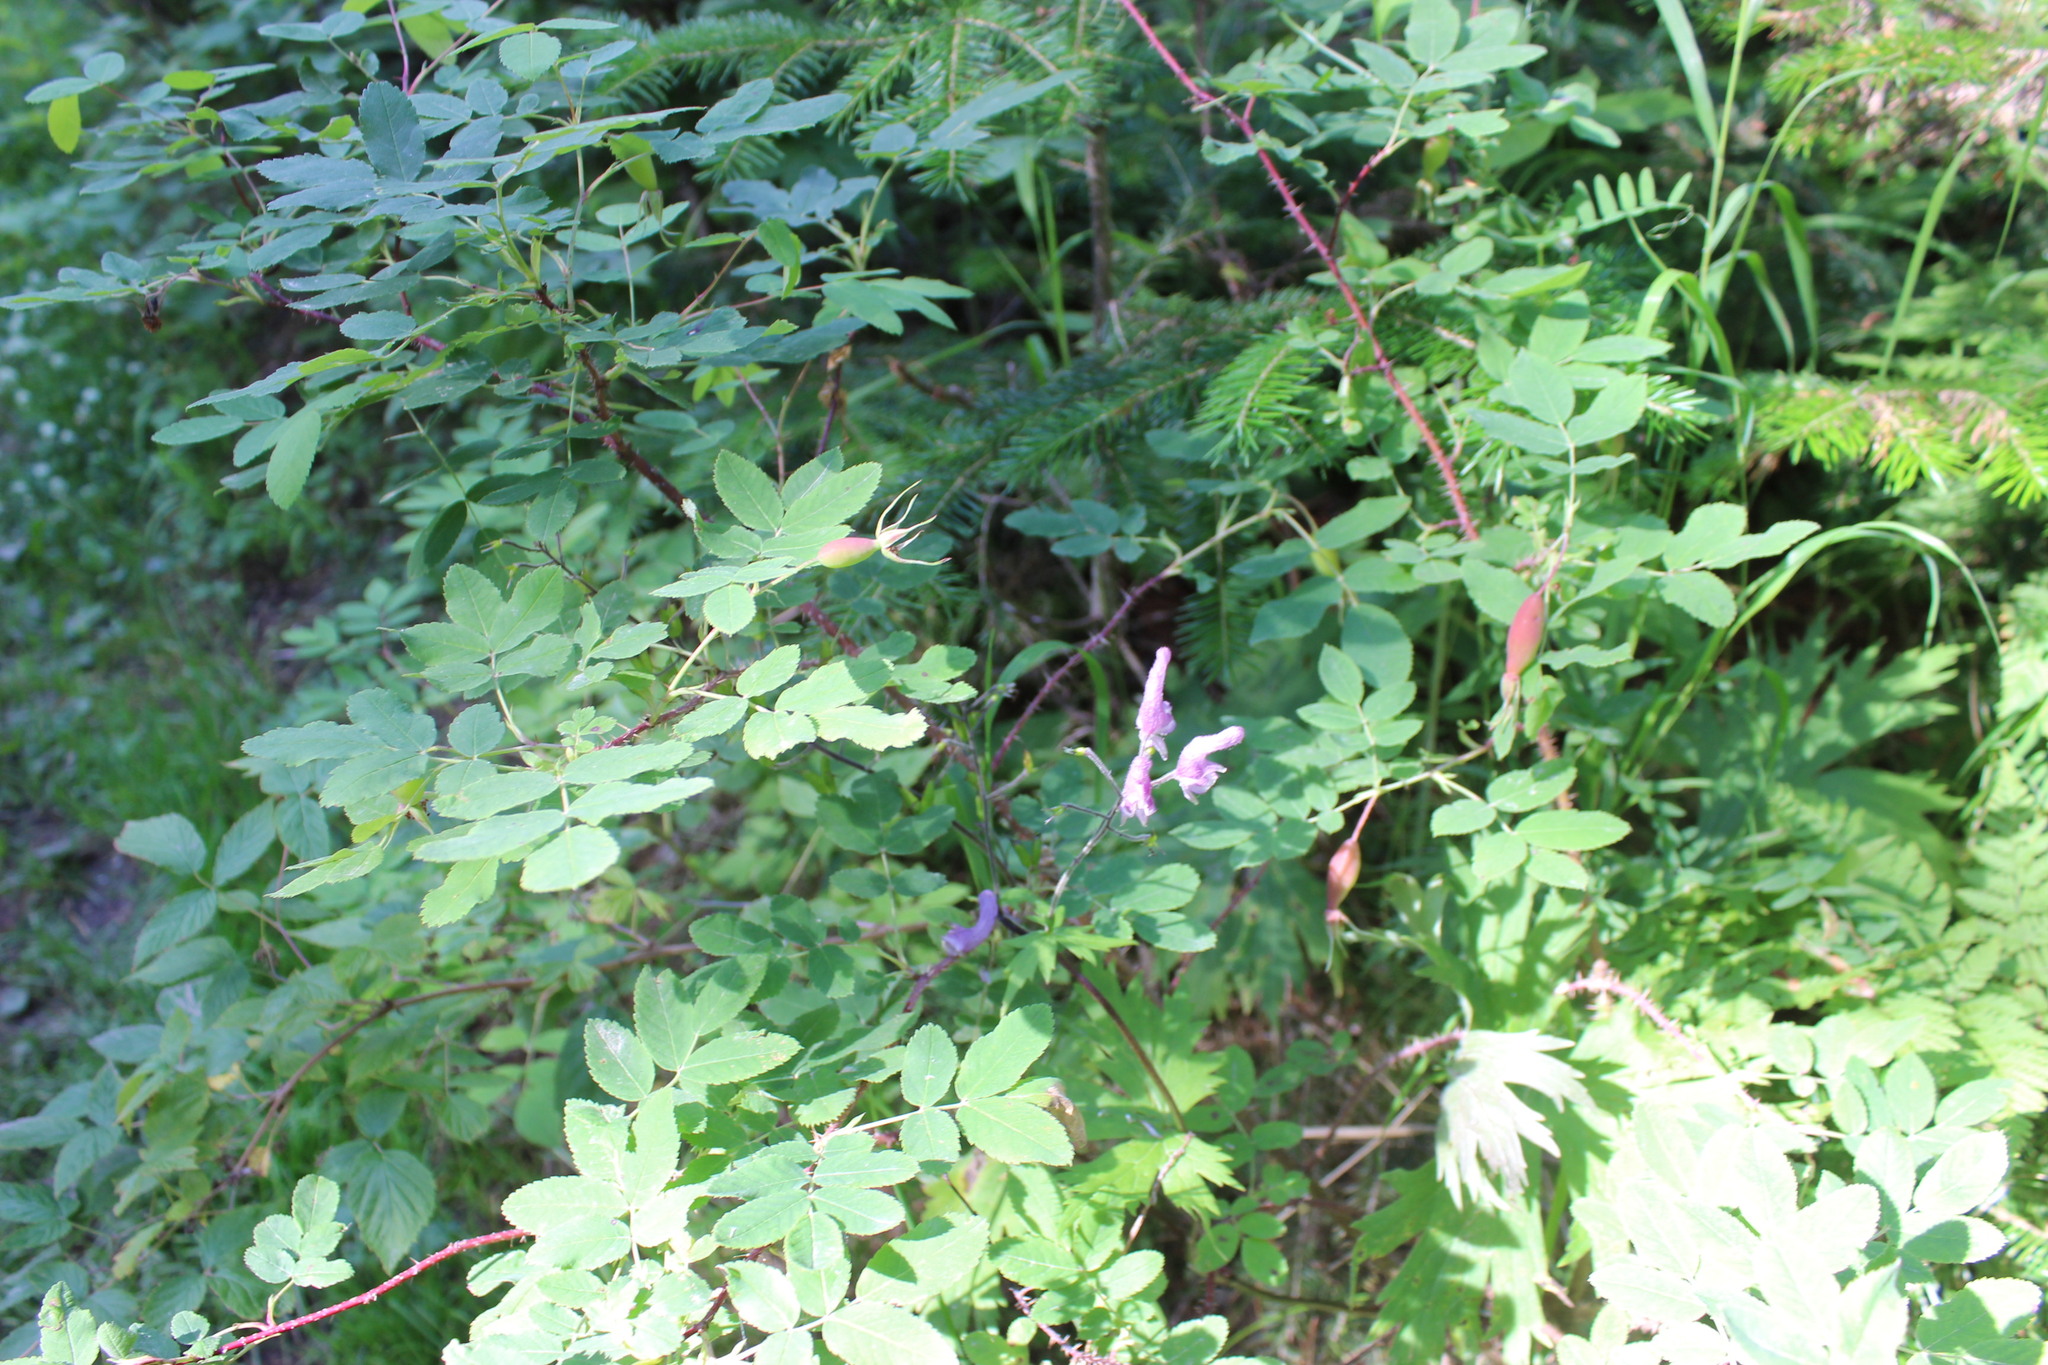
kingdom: Plantae
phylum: Tracheophyta
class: Magnoliopsida
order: Ranunculales
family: Ranunculaceae
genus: Aconitum
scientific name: Aconitum septentrionale
